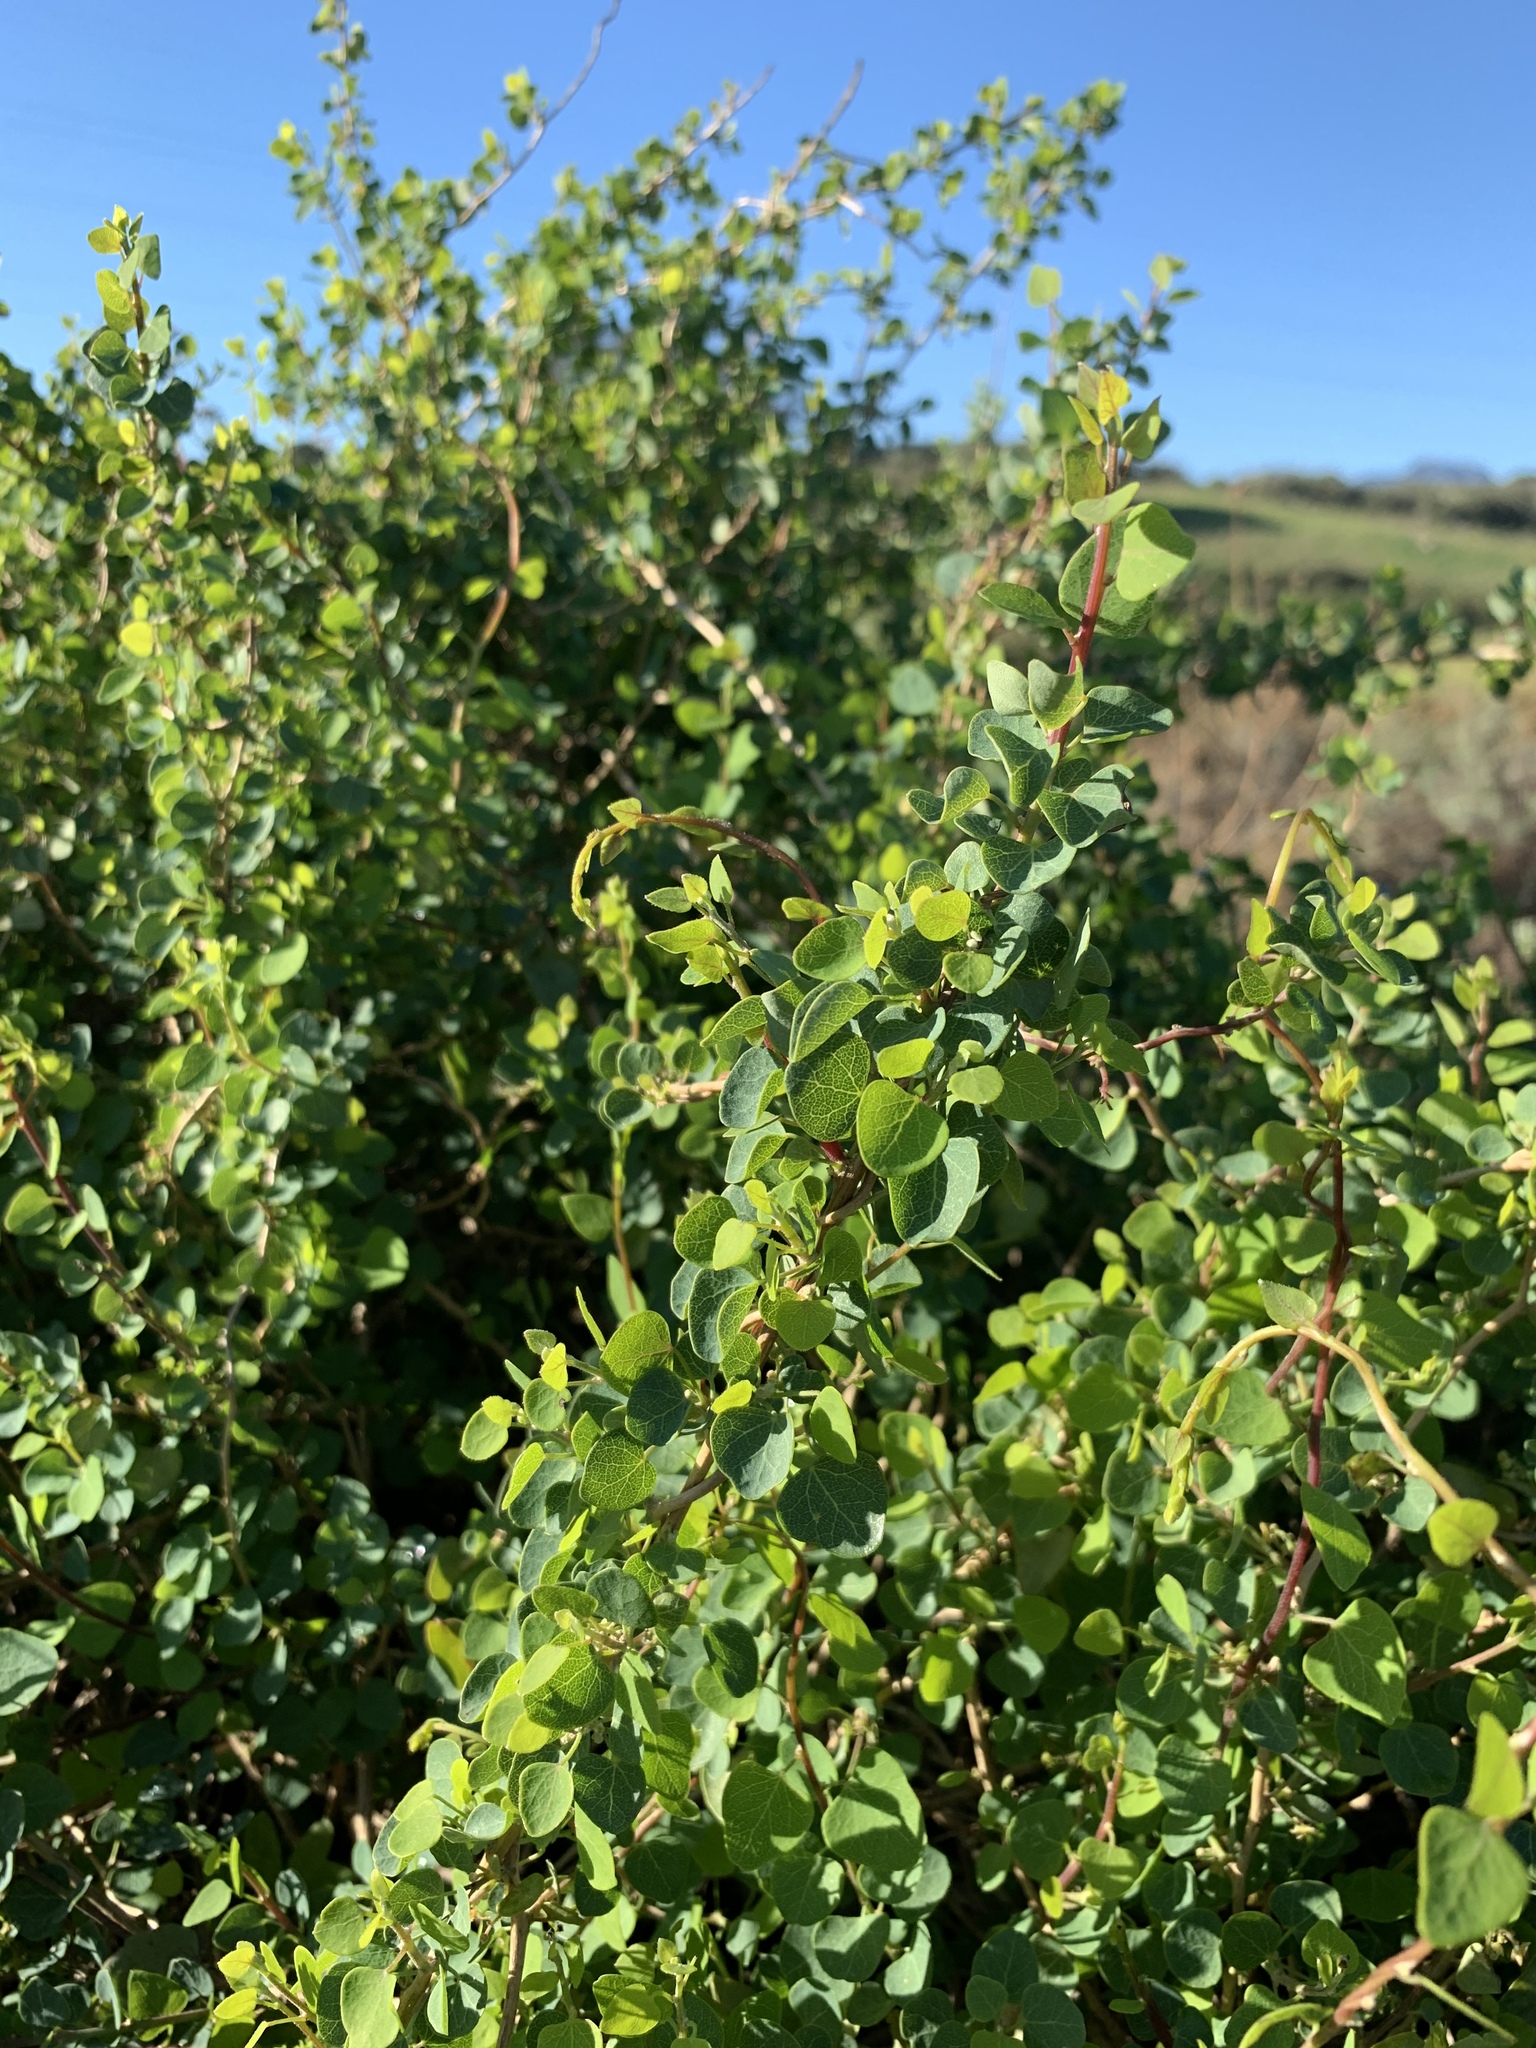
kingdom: Plantae
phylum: Tracheophyta
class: Magnoliopsida
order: Ranunculales
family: Menispermaceae
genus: Cissampelos
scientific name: Cissampelos capensis
